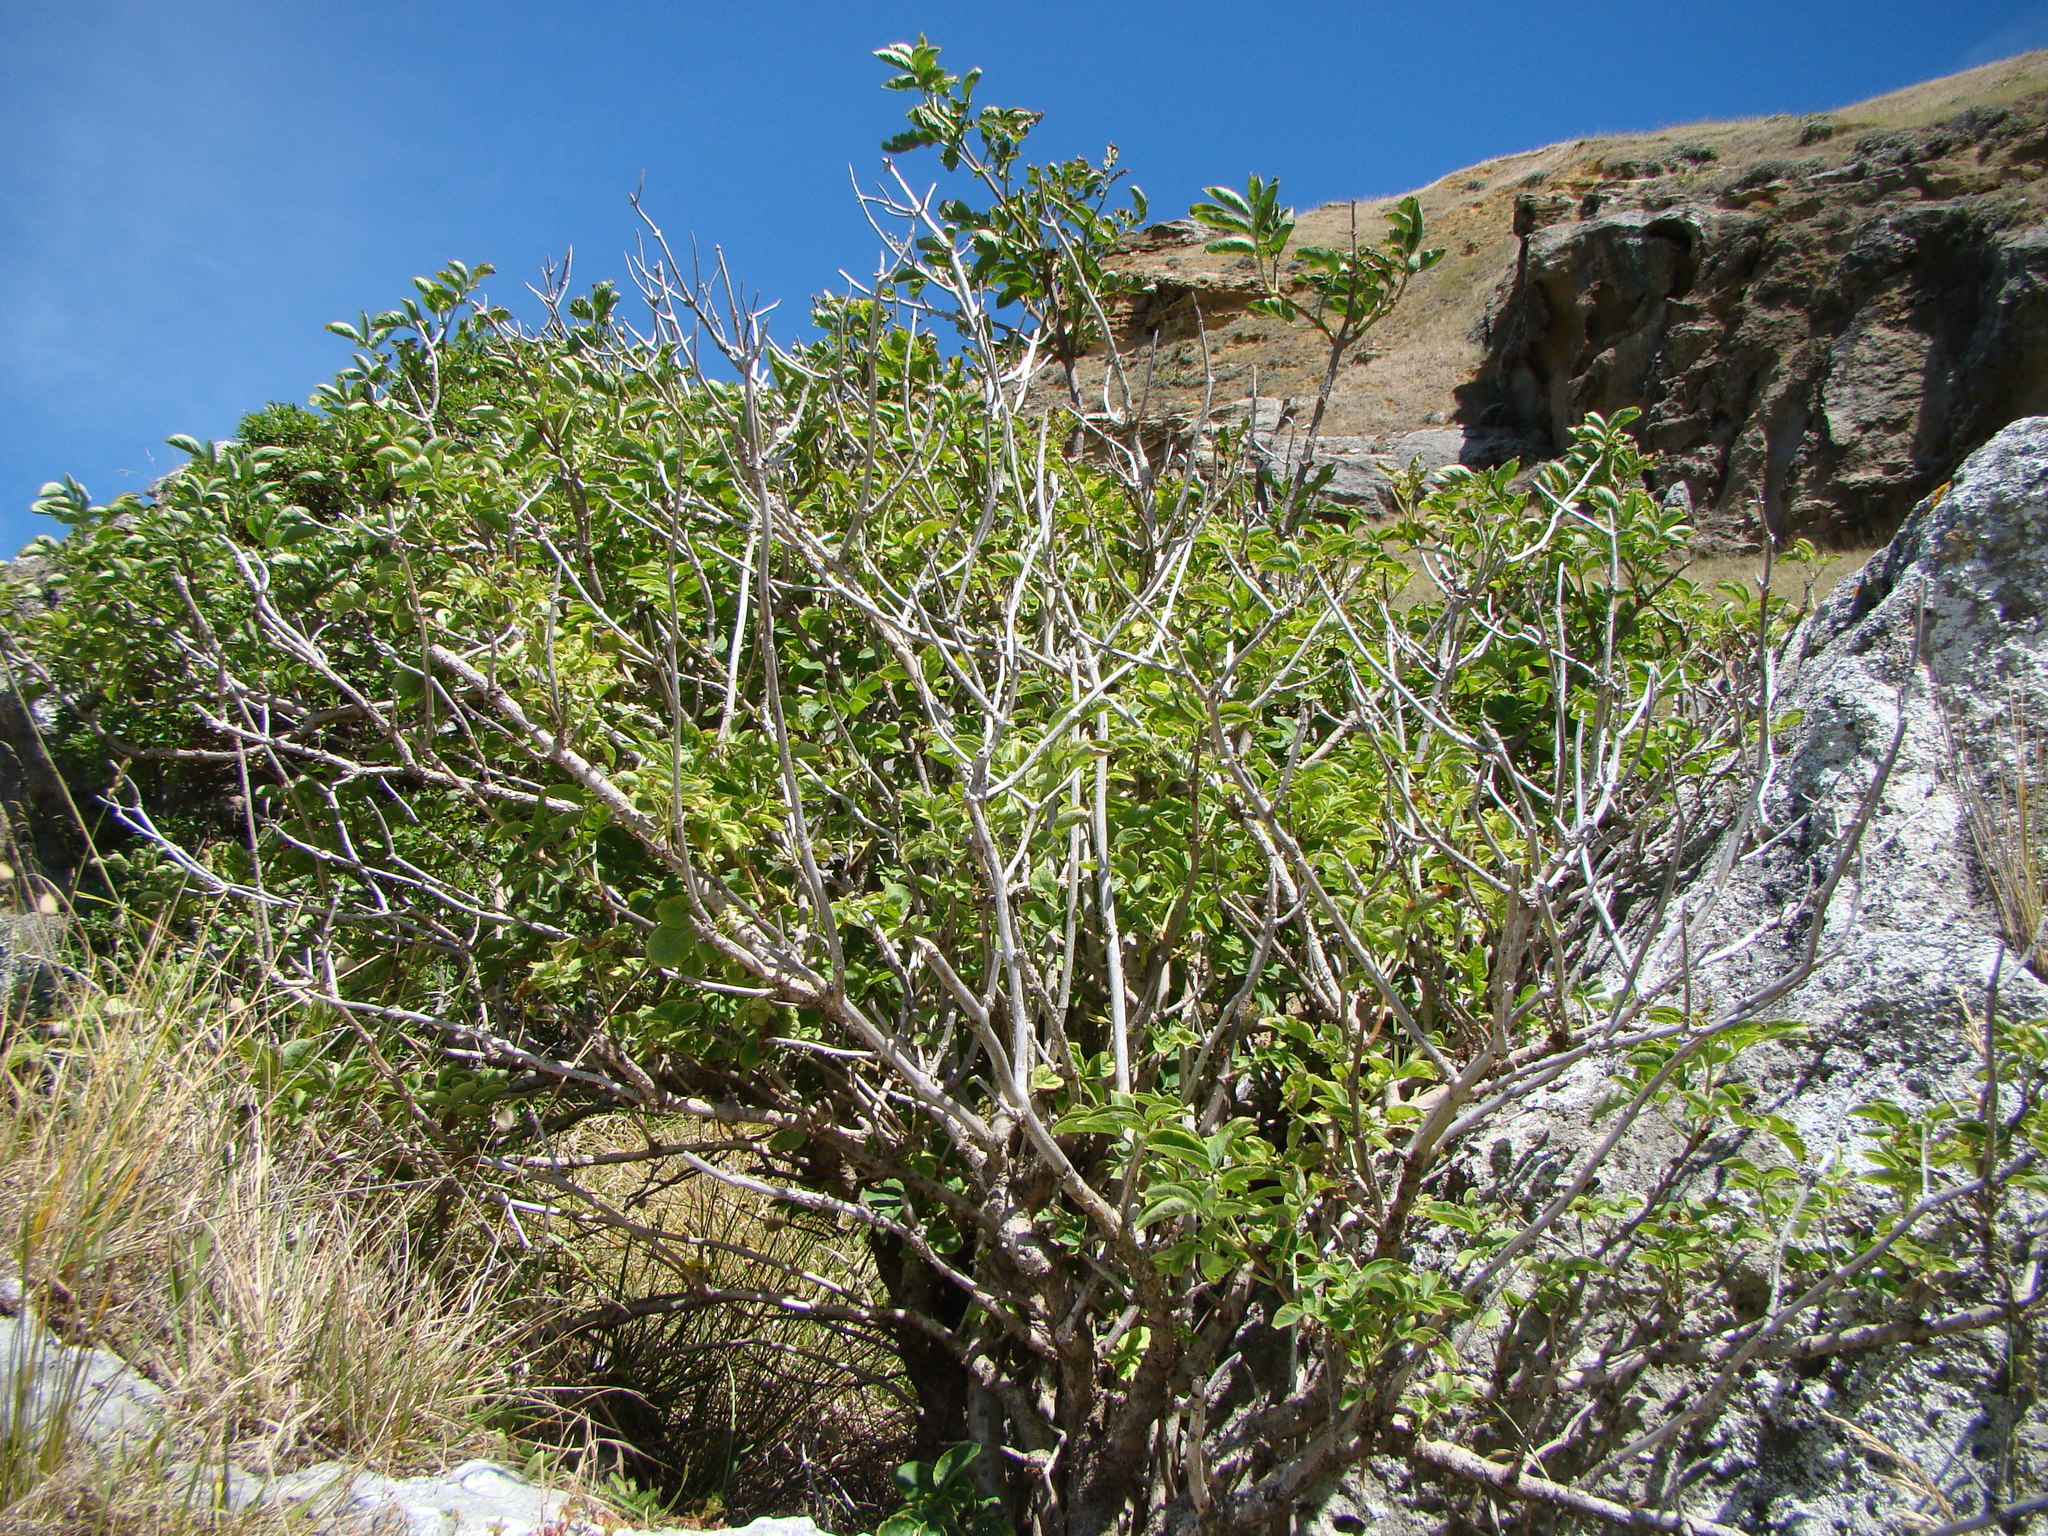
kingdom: Plantae
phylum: Tracheophyta
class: Magnoliopsida
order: Dipsacales
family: Viburnaceae
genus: Sambucus
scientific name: Sambucus nigra
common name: Elder
